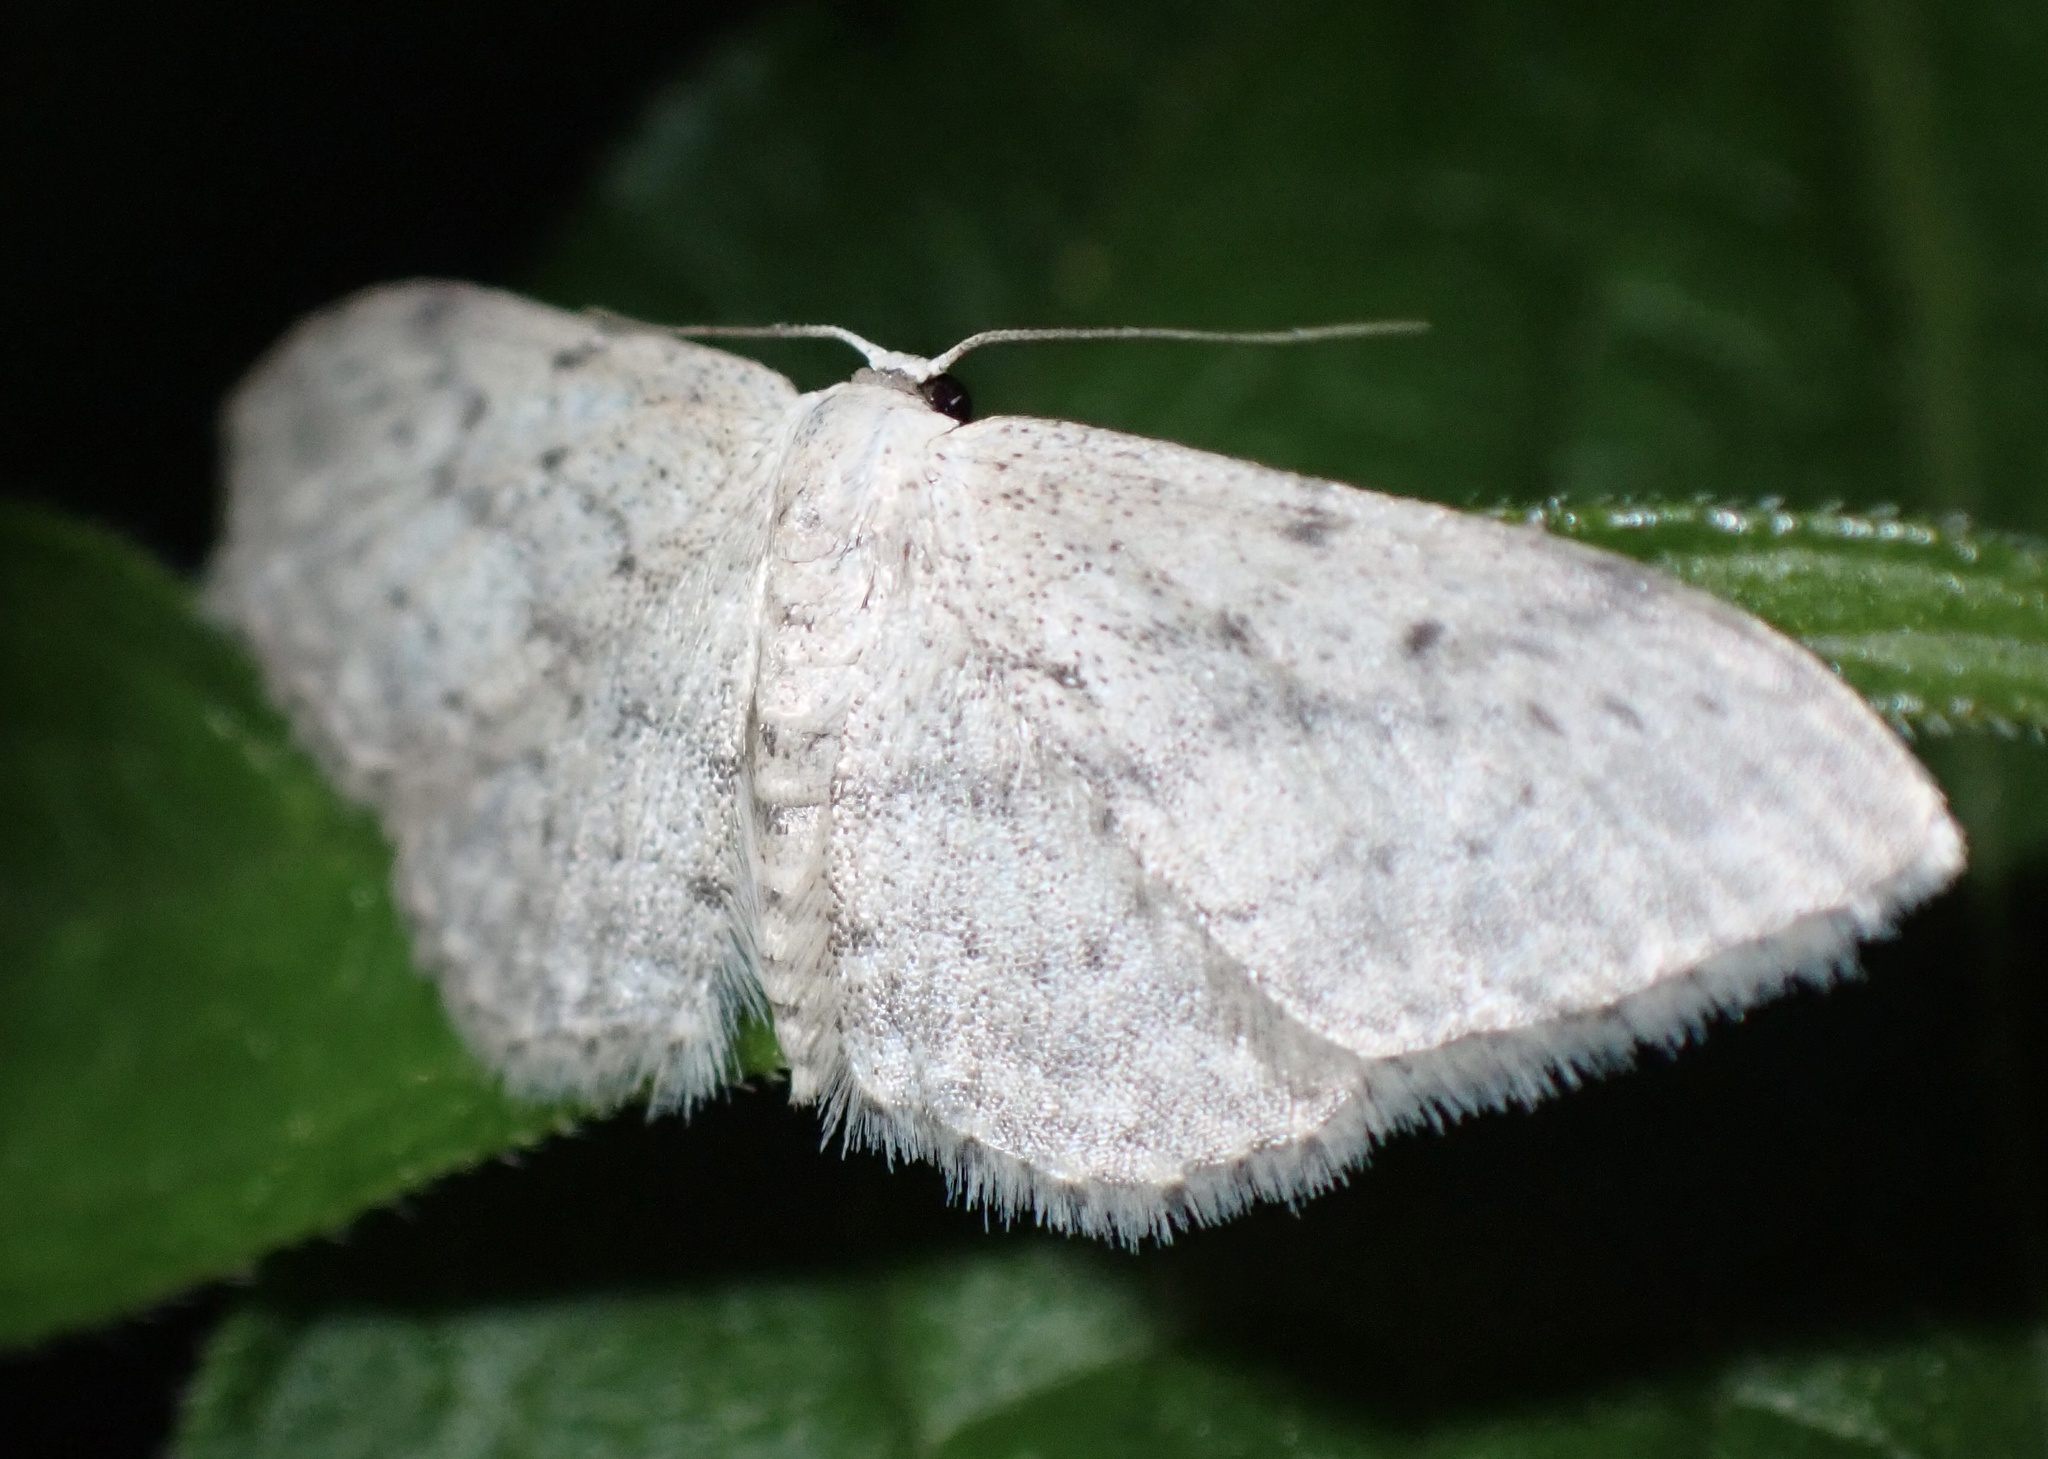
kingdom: Animalia
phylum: Arthropoda
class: Insecta
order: Lepidoptera
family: Geometridae
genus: Idaea
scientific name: Idaea seriata
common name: Small dusty wave
